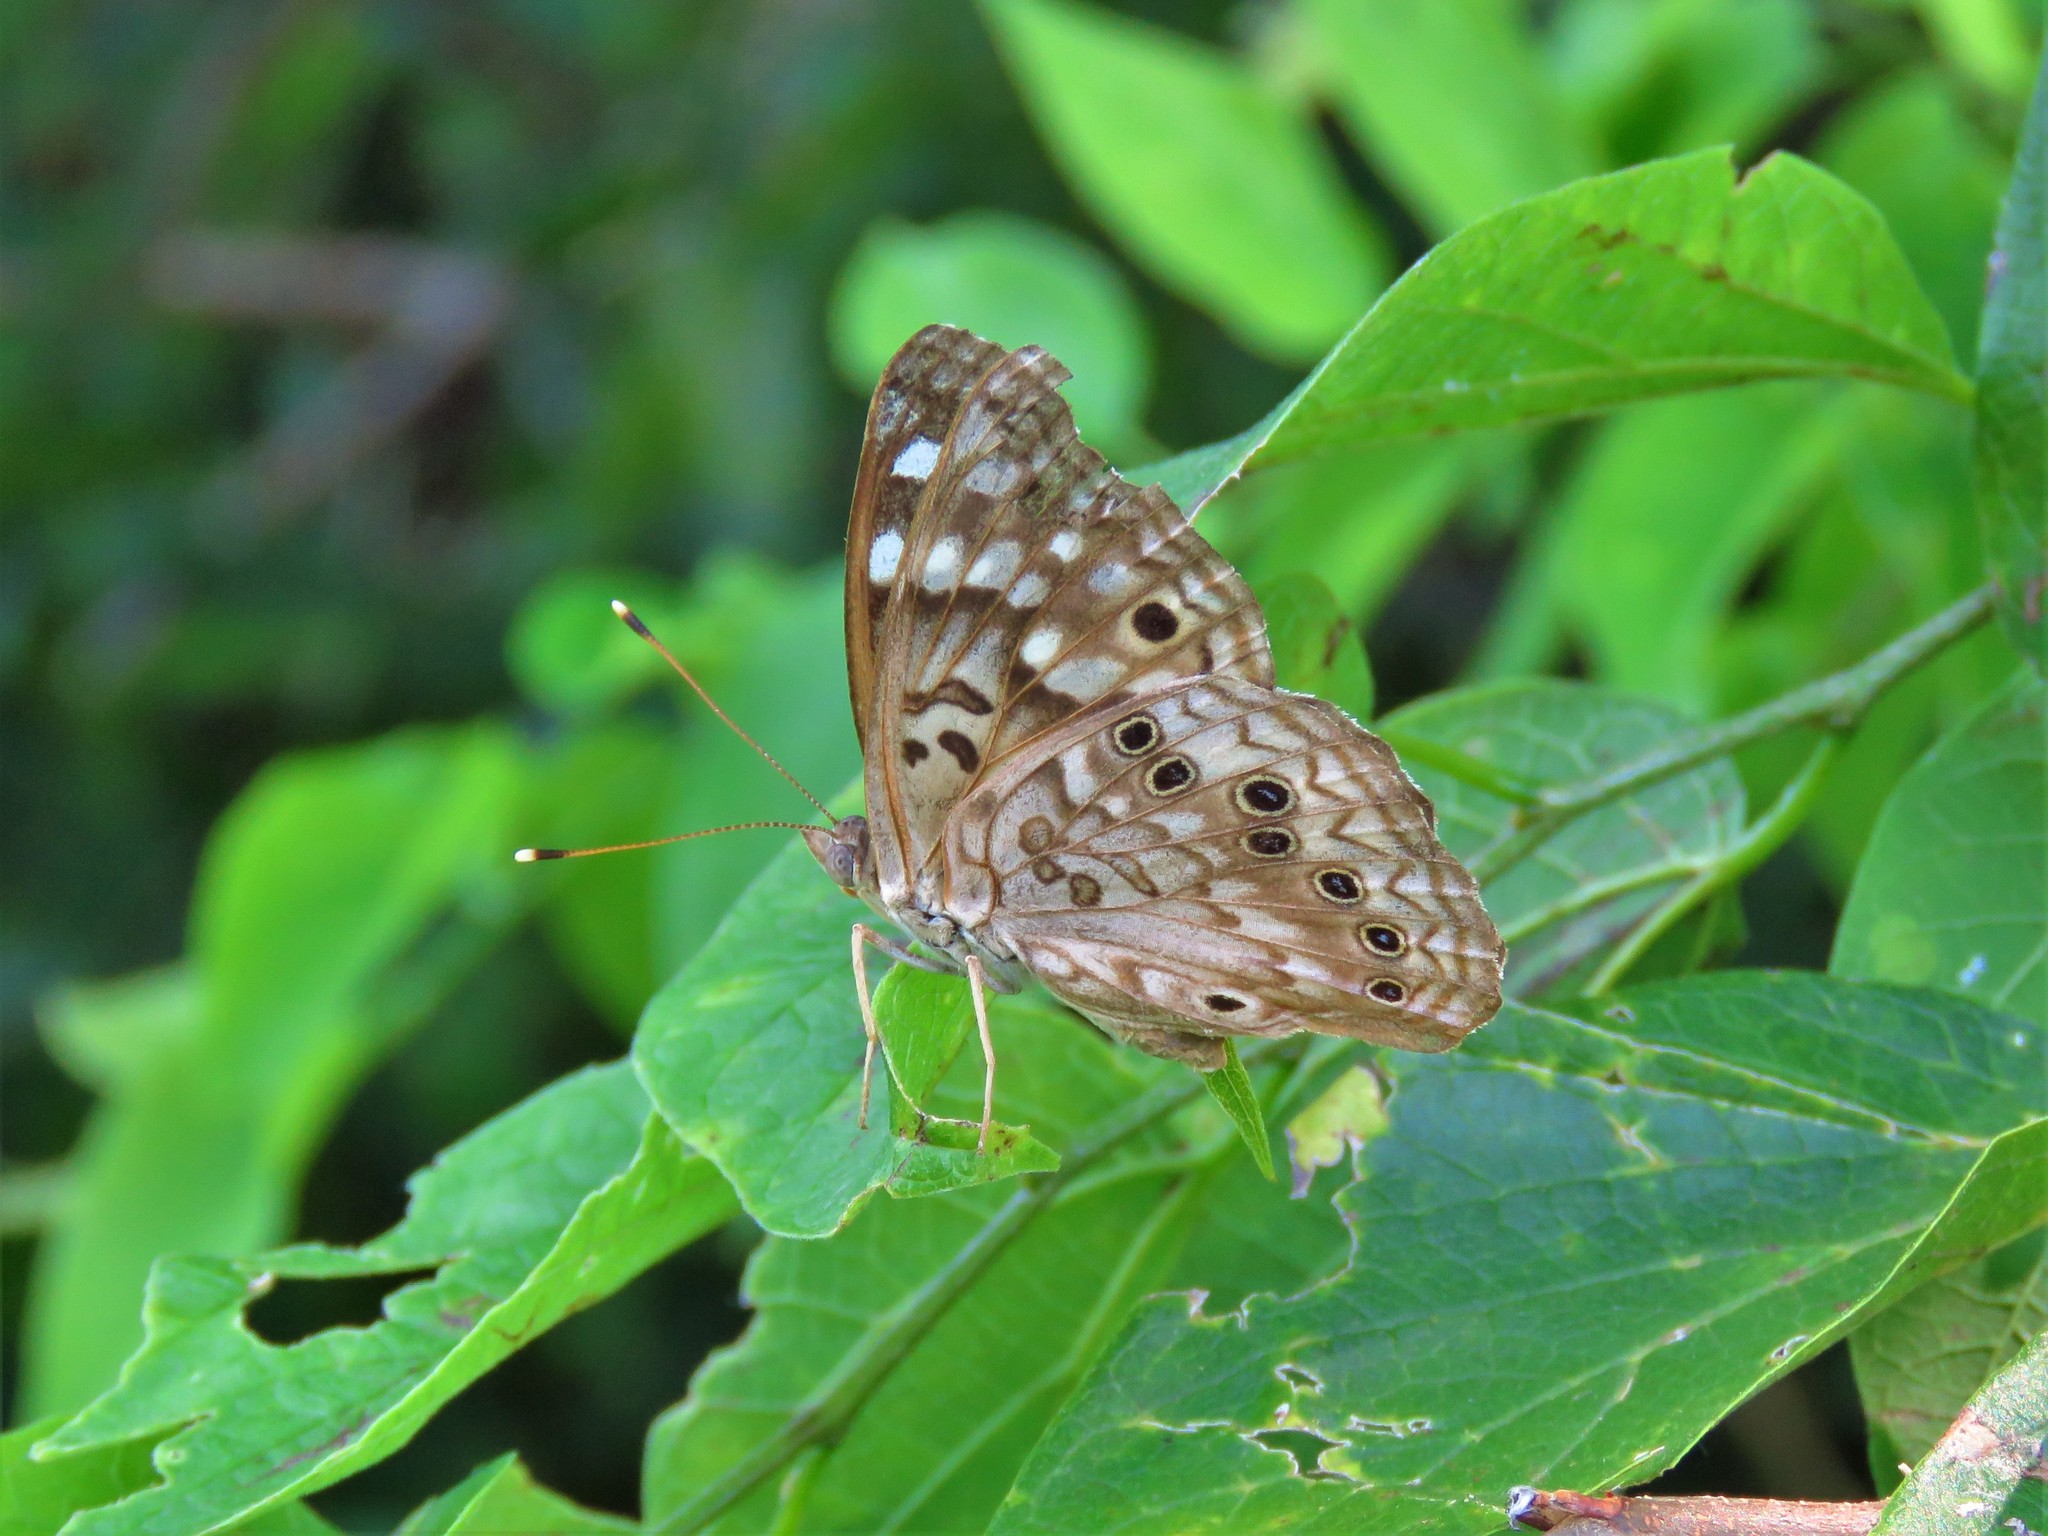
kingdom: Animalia
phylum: Arthropoda
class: Insecta
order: Lepidoptera
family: Nymphalidae
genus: Asterocampa
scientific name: Asterocampa celtis
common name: Hackberry emperor
